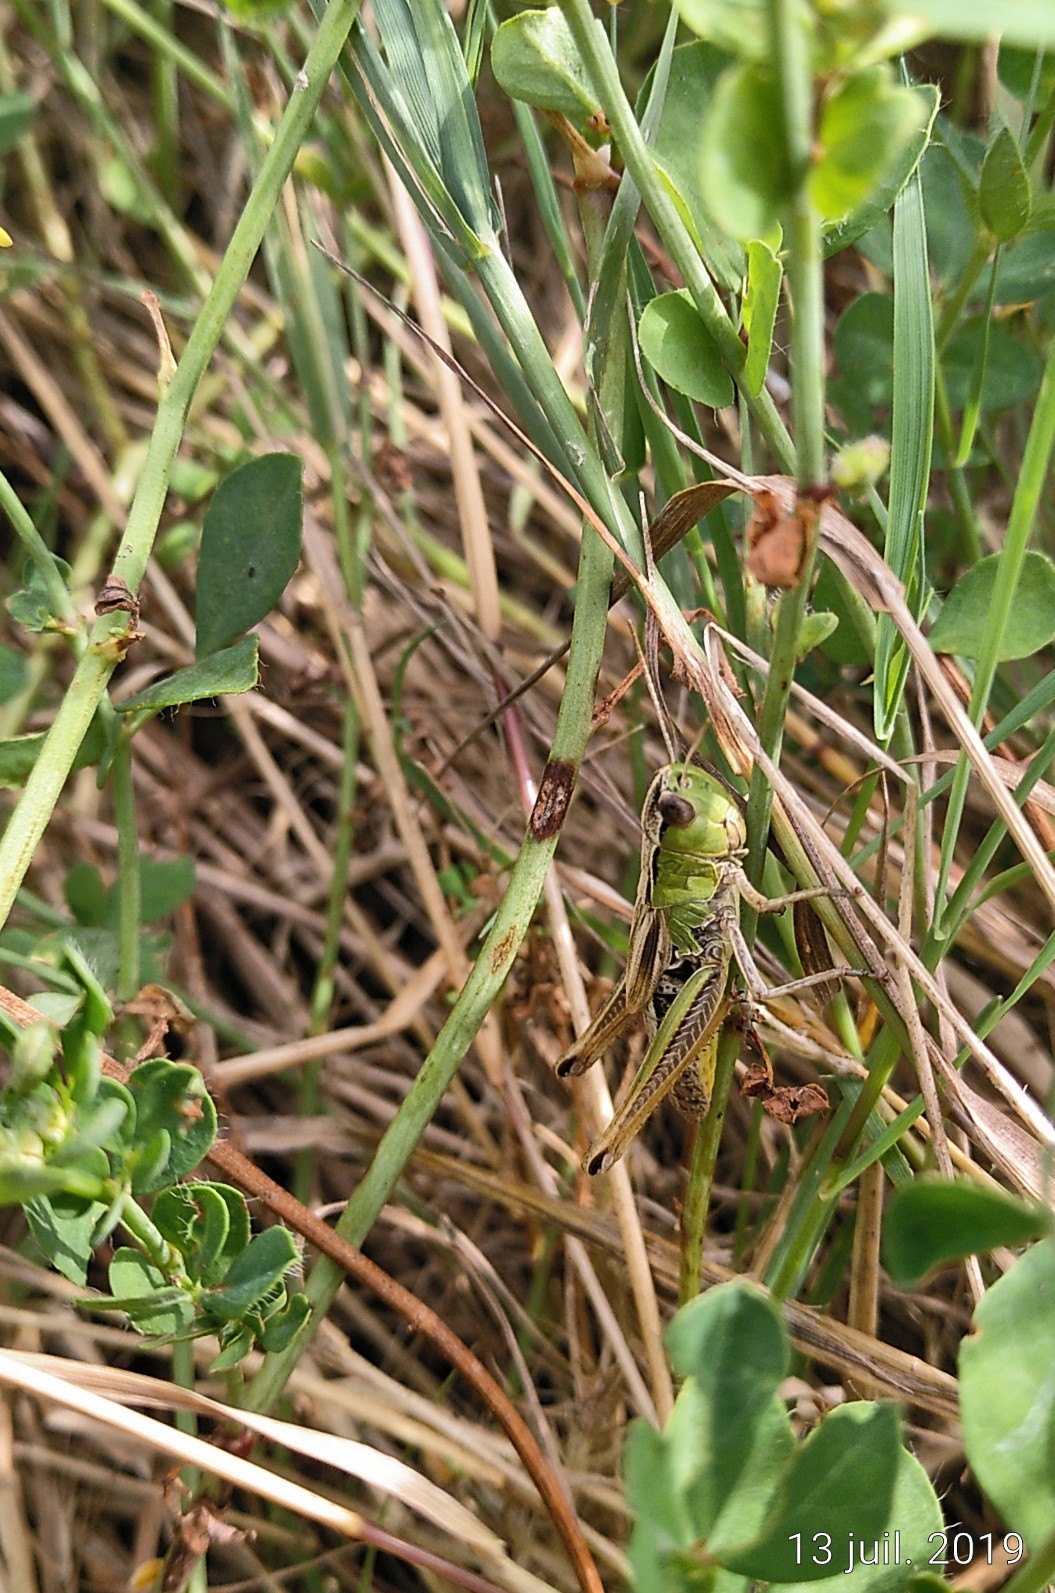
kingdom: Animalia
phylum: Arthropoda
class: Insecta
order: Orthoptera
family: Acrididae
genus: Pseudochorthippus
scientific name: Pseudochorthippus parallelus
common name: Meadow grasshopper
